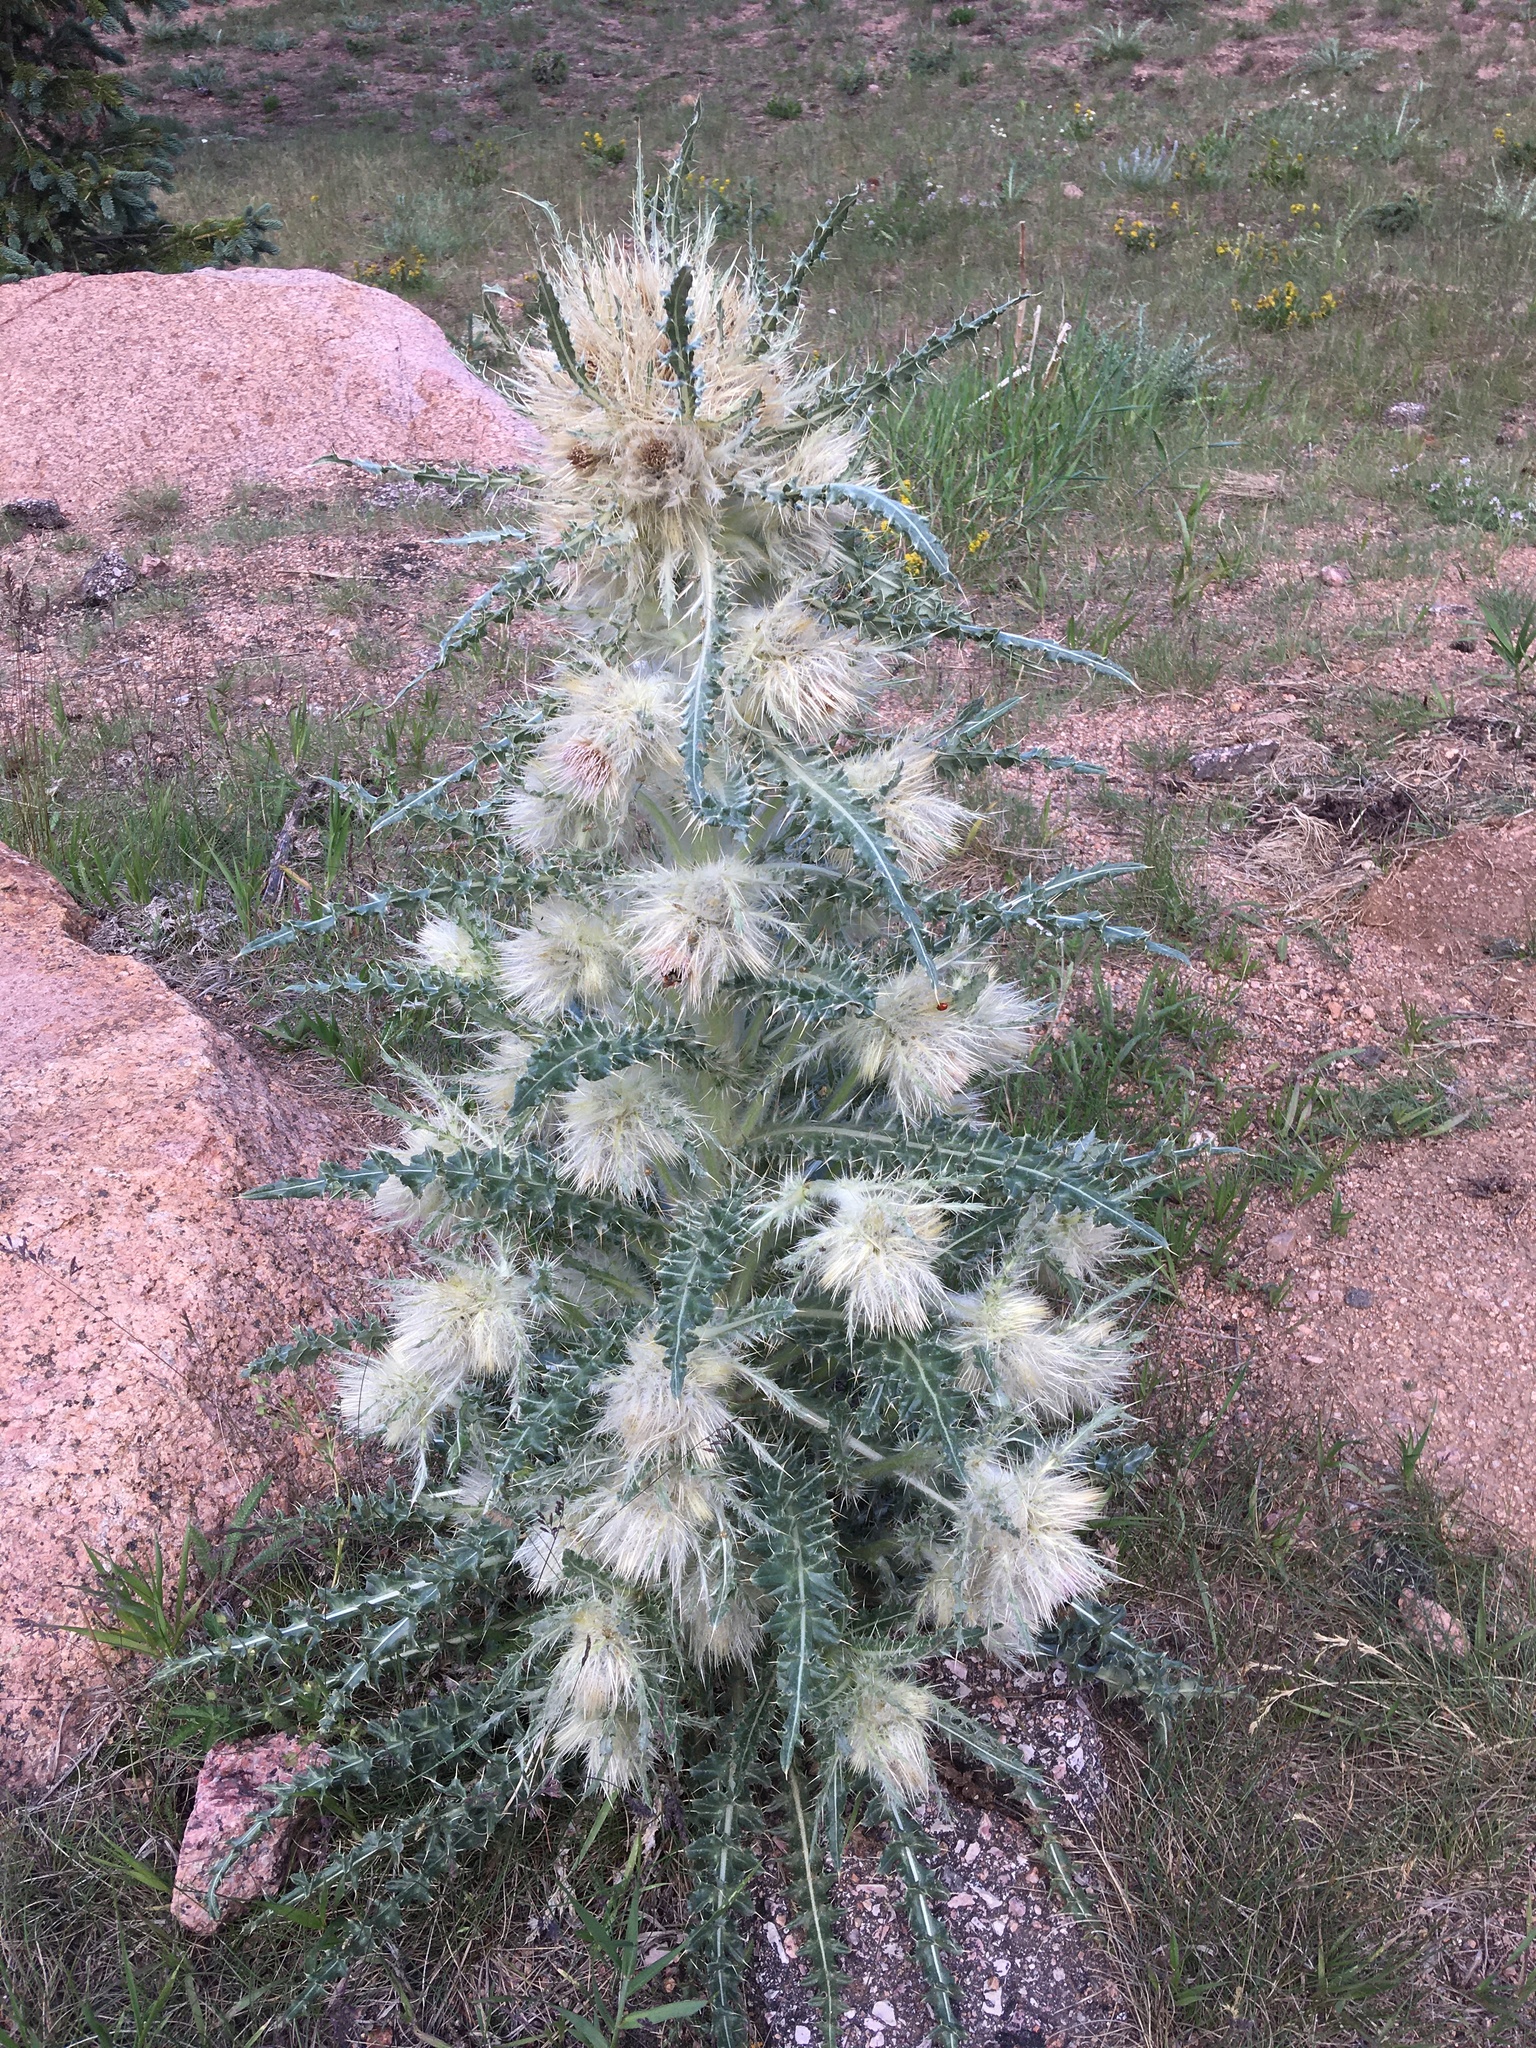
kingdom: Animalia
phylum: Arthropoda
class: Insecta
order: Coleoptera
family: Coccinellidae
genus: Hippodamia
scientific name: Hippodamia convergens
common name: Convergent lady beetle
